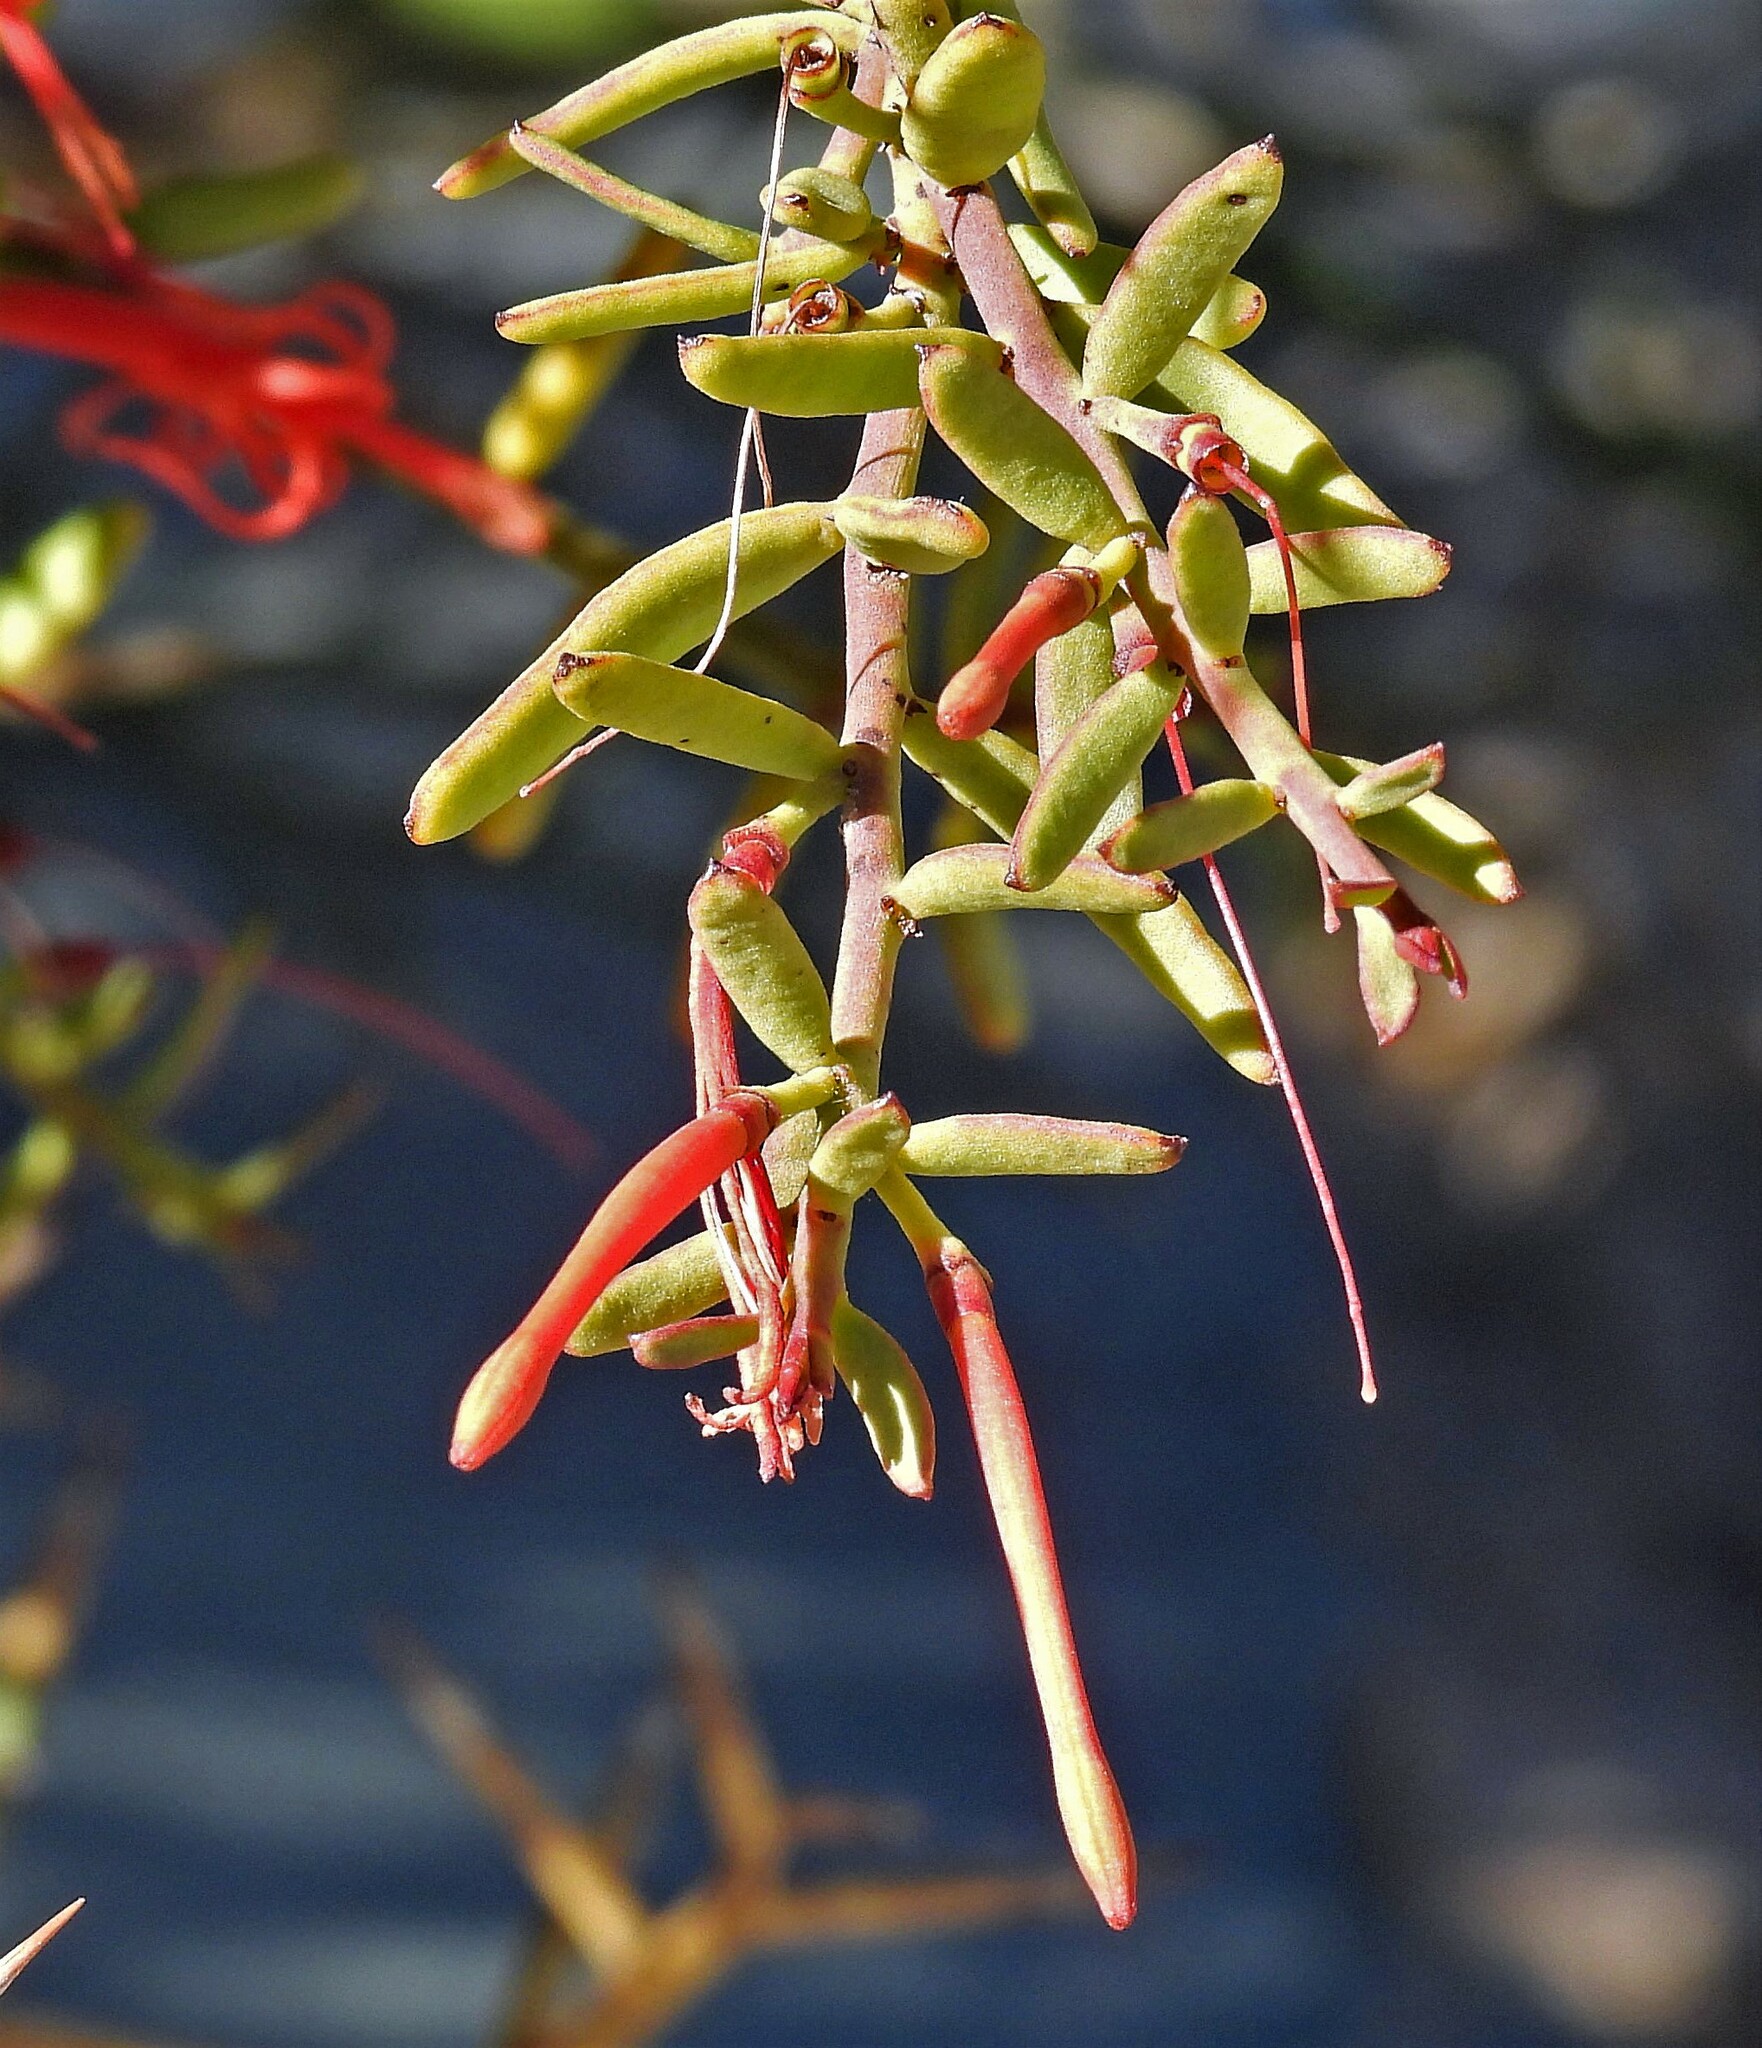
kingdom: Plantae
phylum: Tracheophyta
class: Magnoliopsida
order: Santalales
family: Loranthaceae
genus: Ligaria
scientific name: Ligaria cuneifolia
